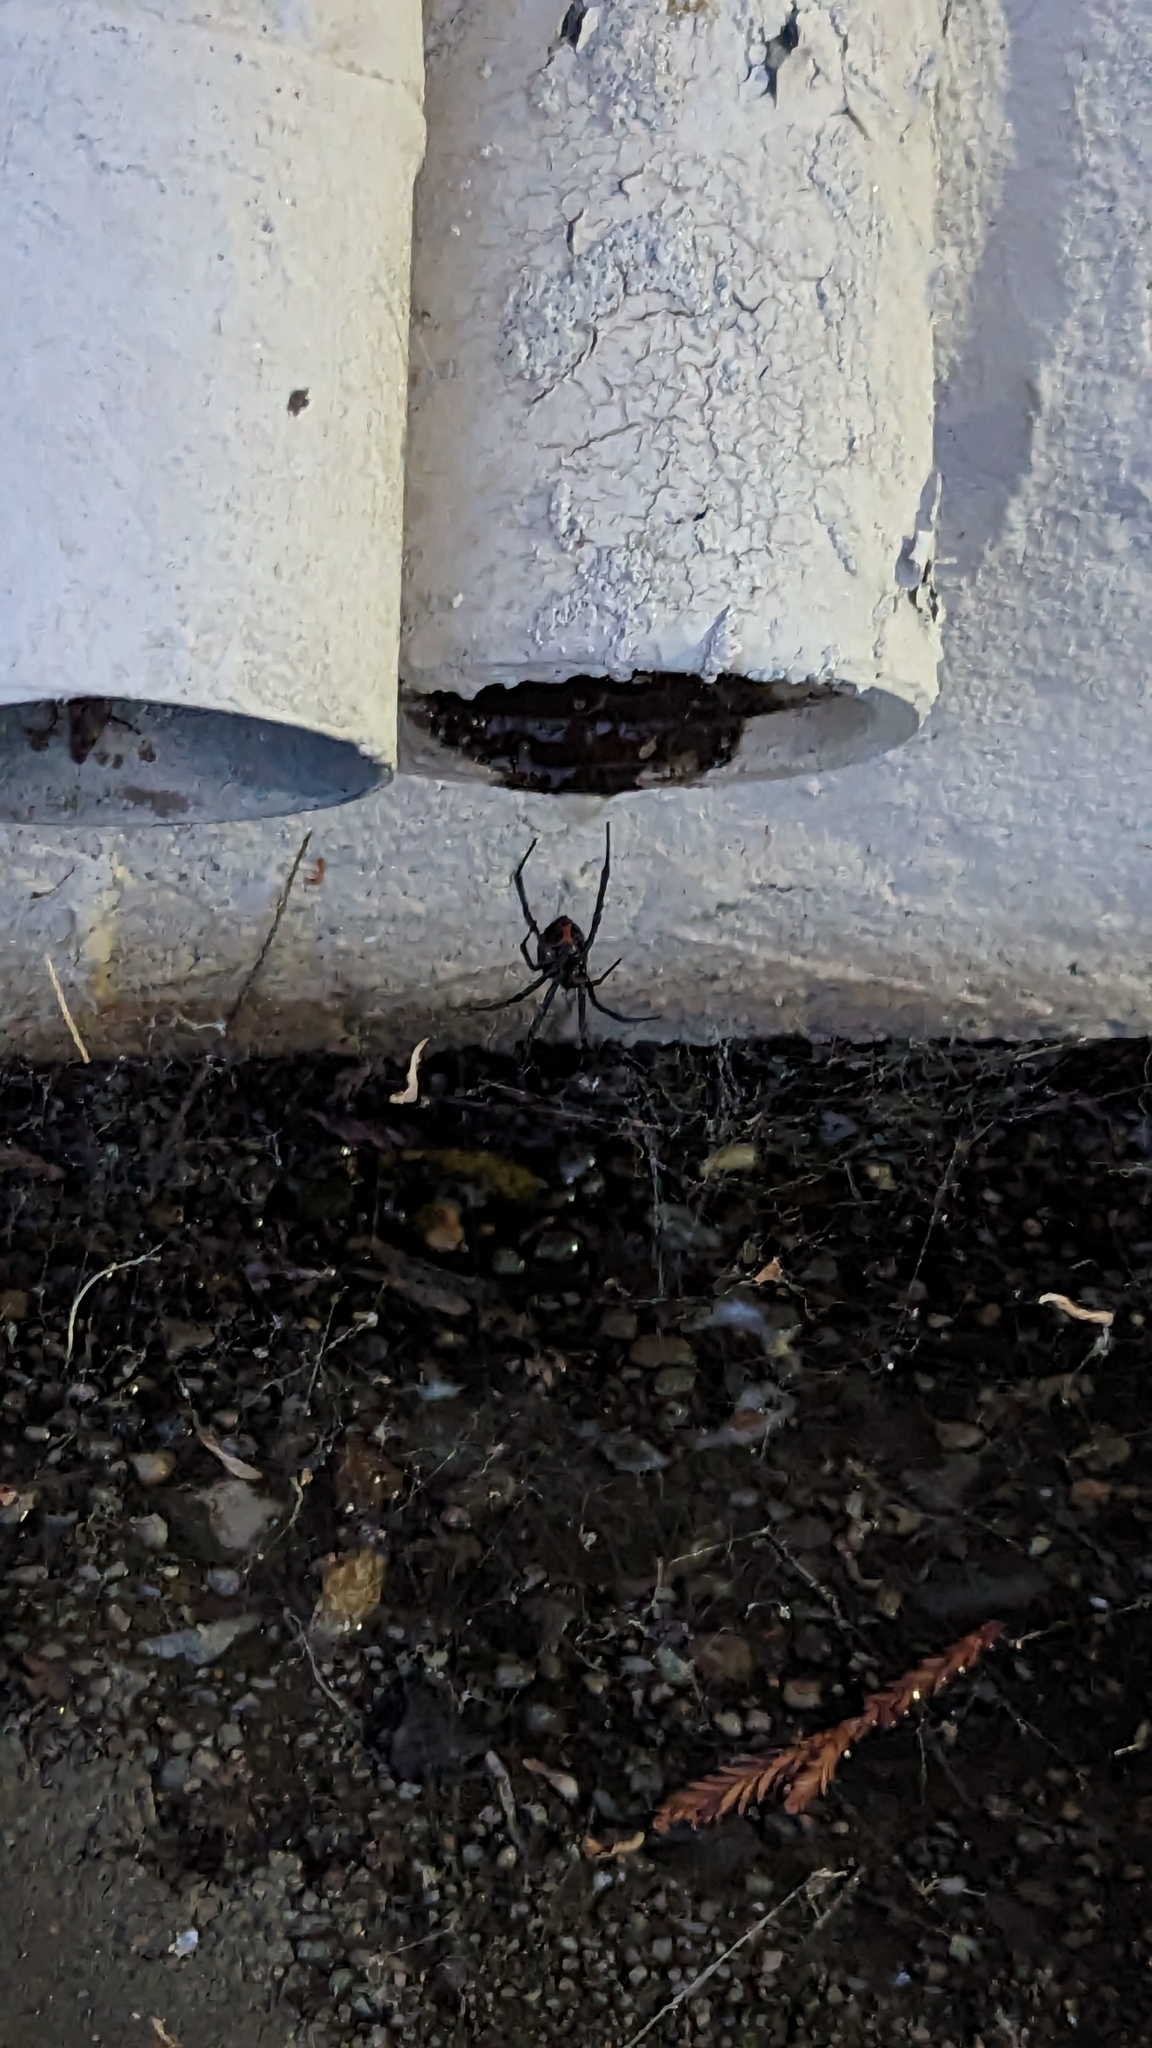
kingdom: Animalia
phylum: Arthropoda
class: Arachnida
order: Araneae
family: Theridiidae
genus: Latrodectus
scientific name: Latrodectus hesperus
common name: Western black widow
